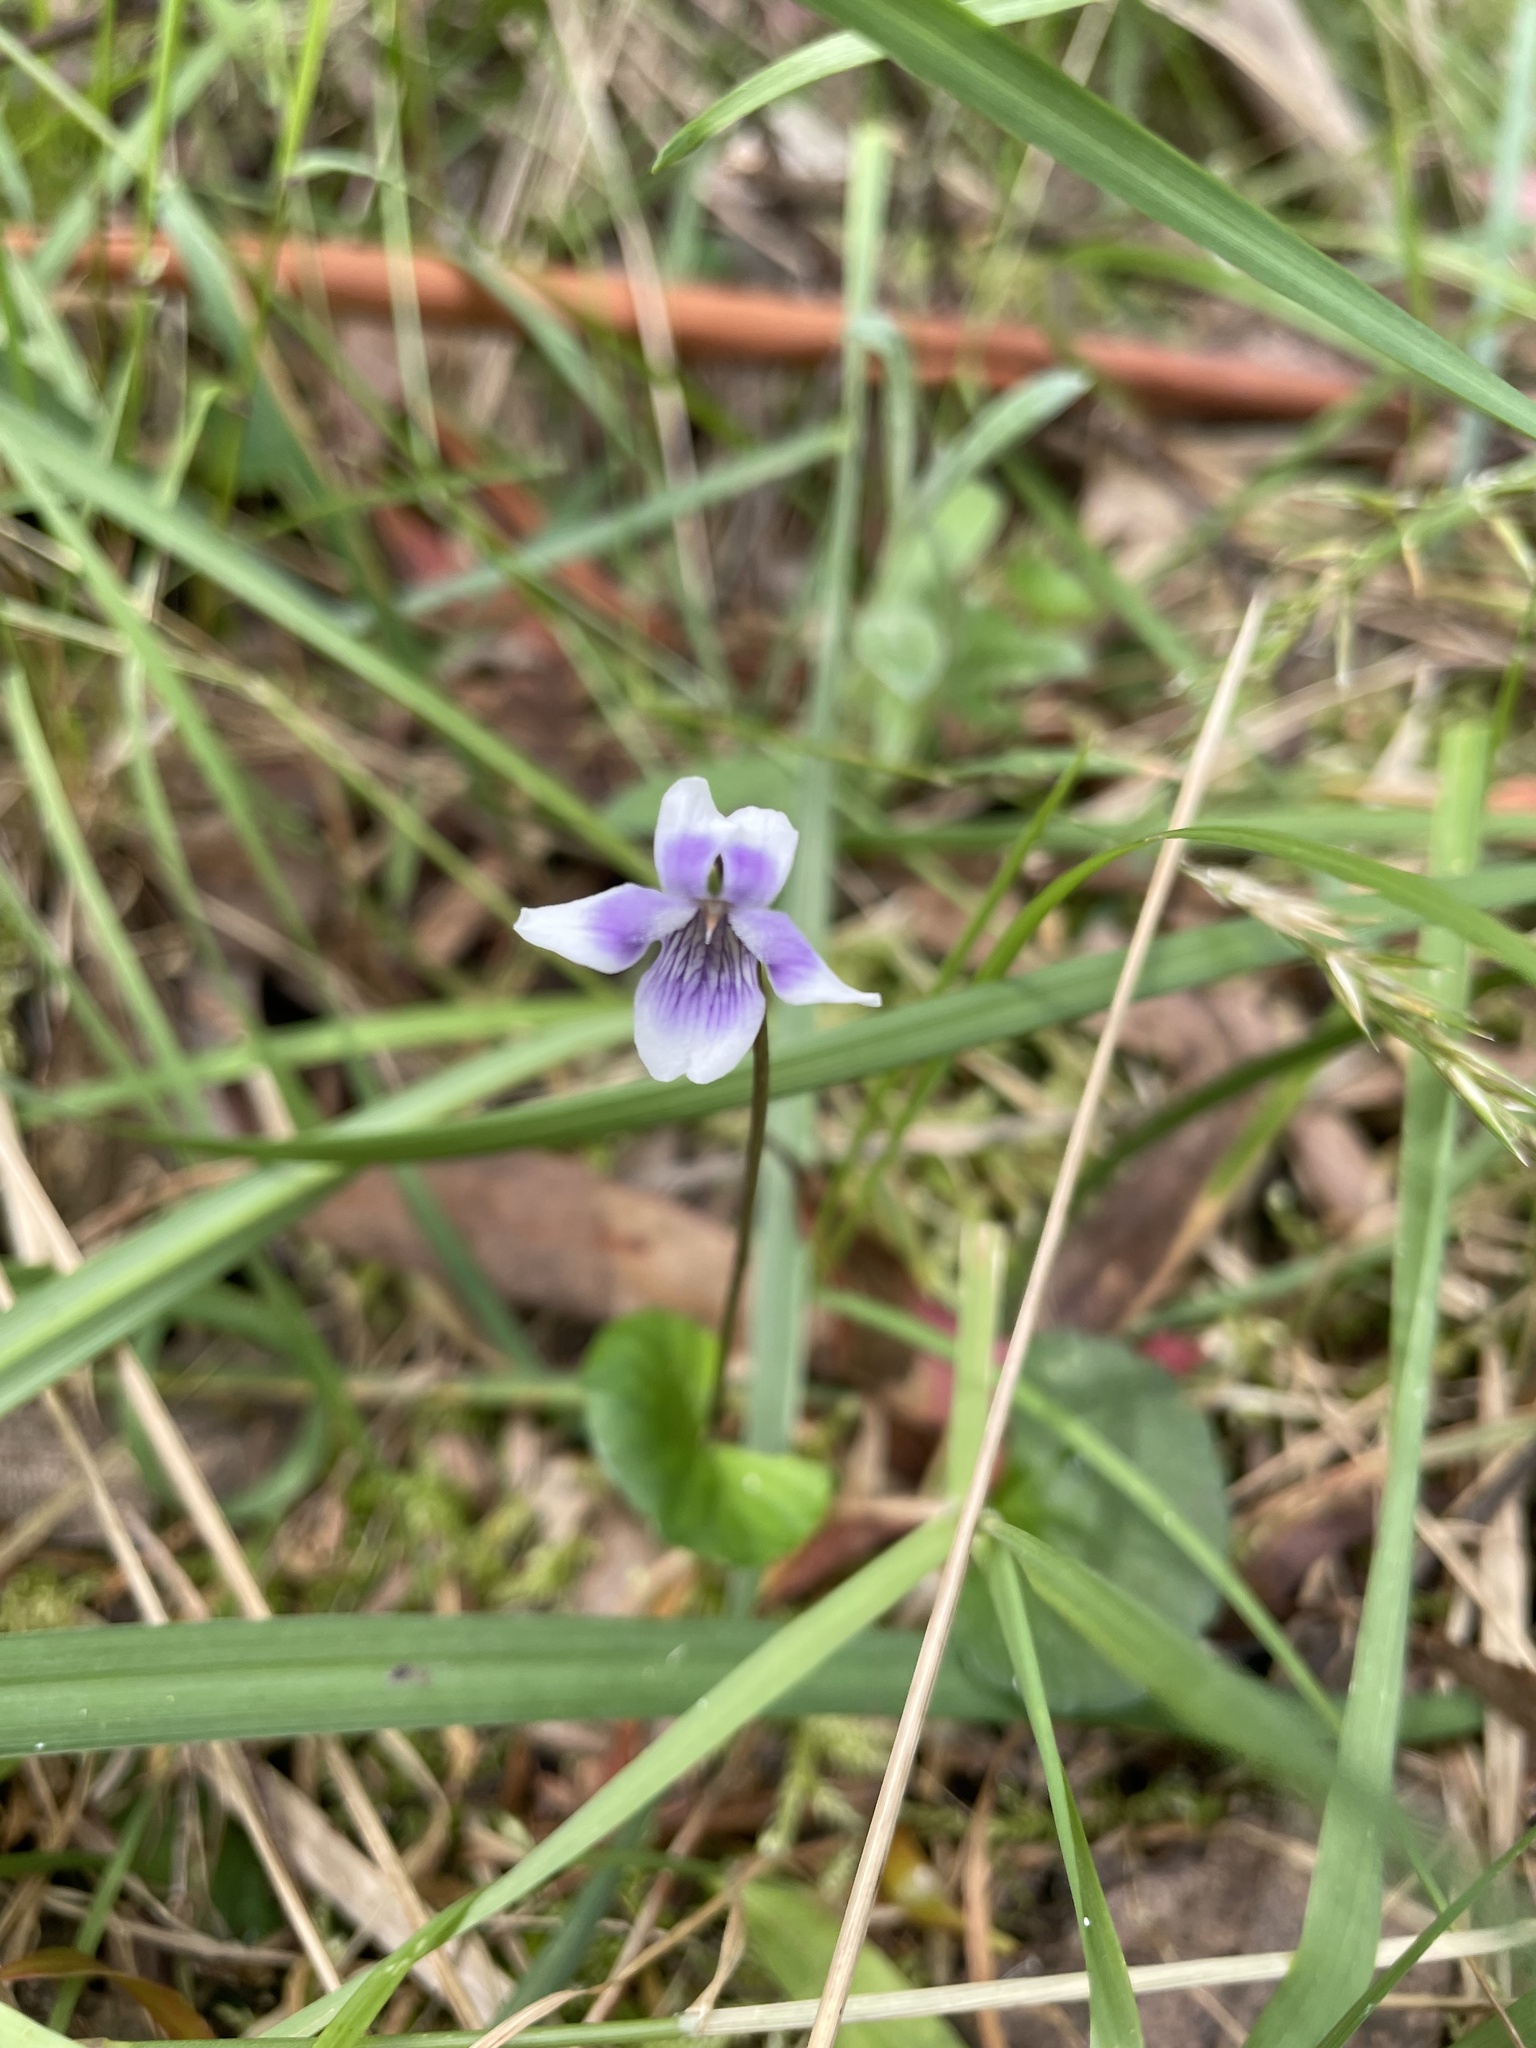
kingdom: Plantae
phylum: Tracheophyta
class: Magnoliopsida
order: Malpighiales
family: Violaceae
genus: Viola
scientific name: Viola hederacea
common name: Australian violet
